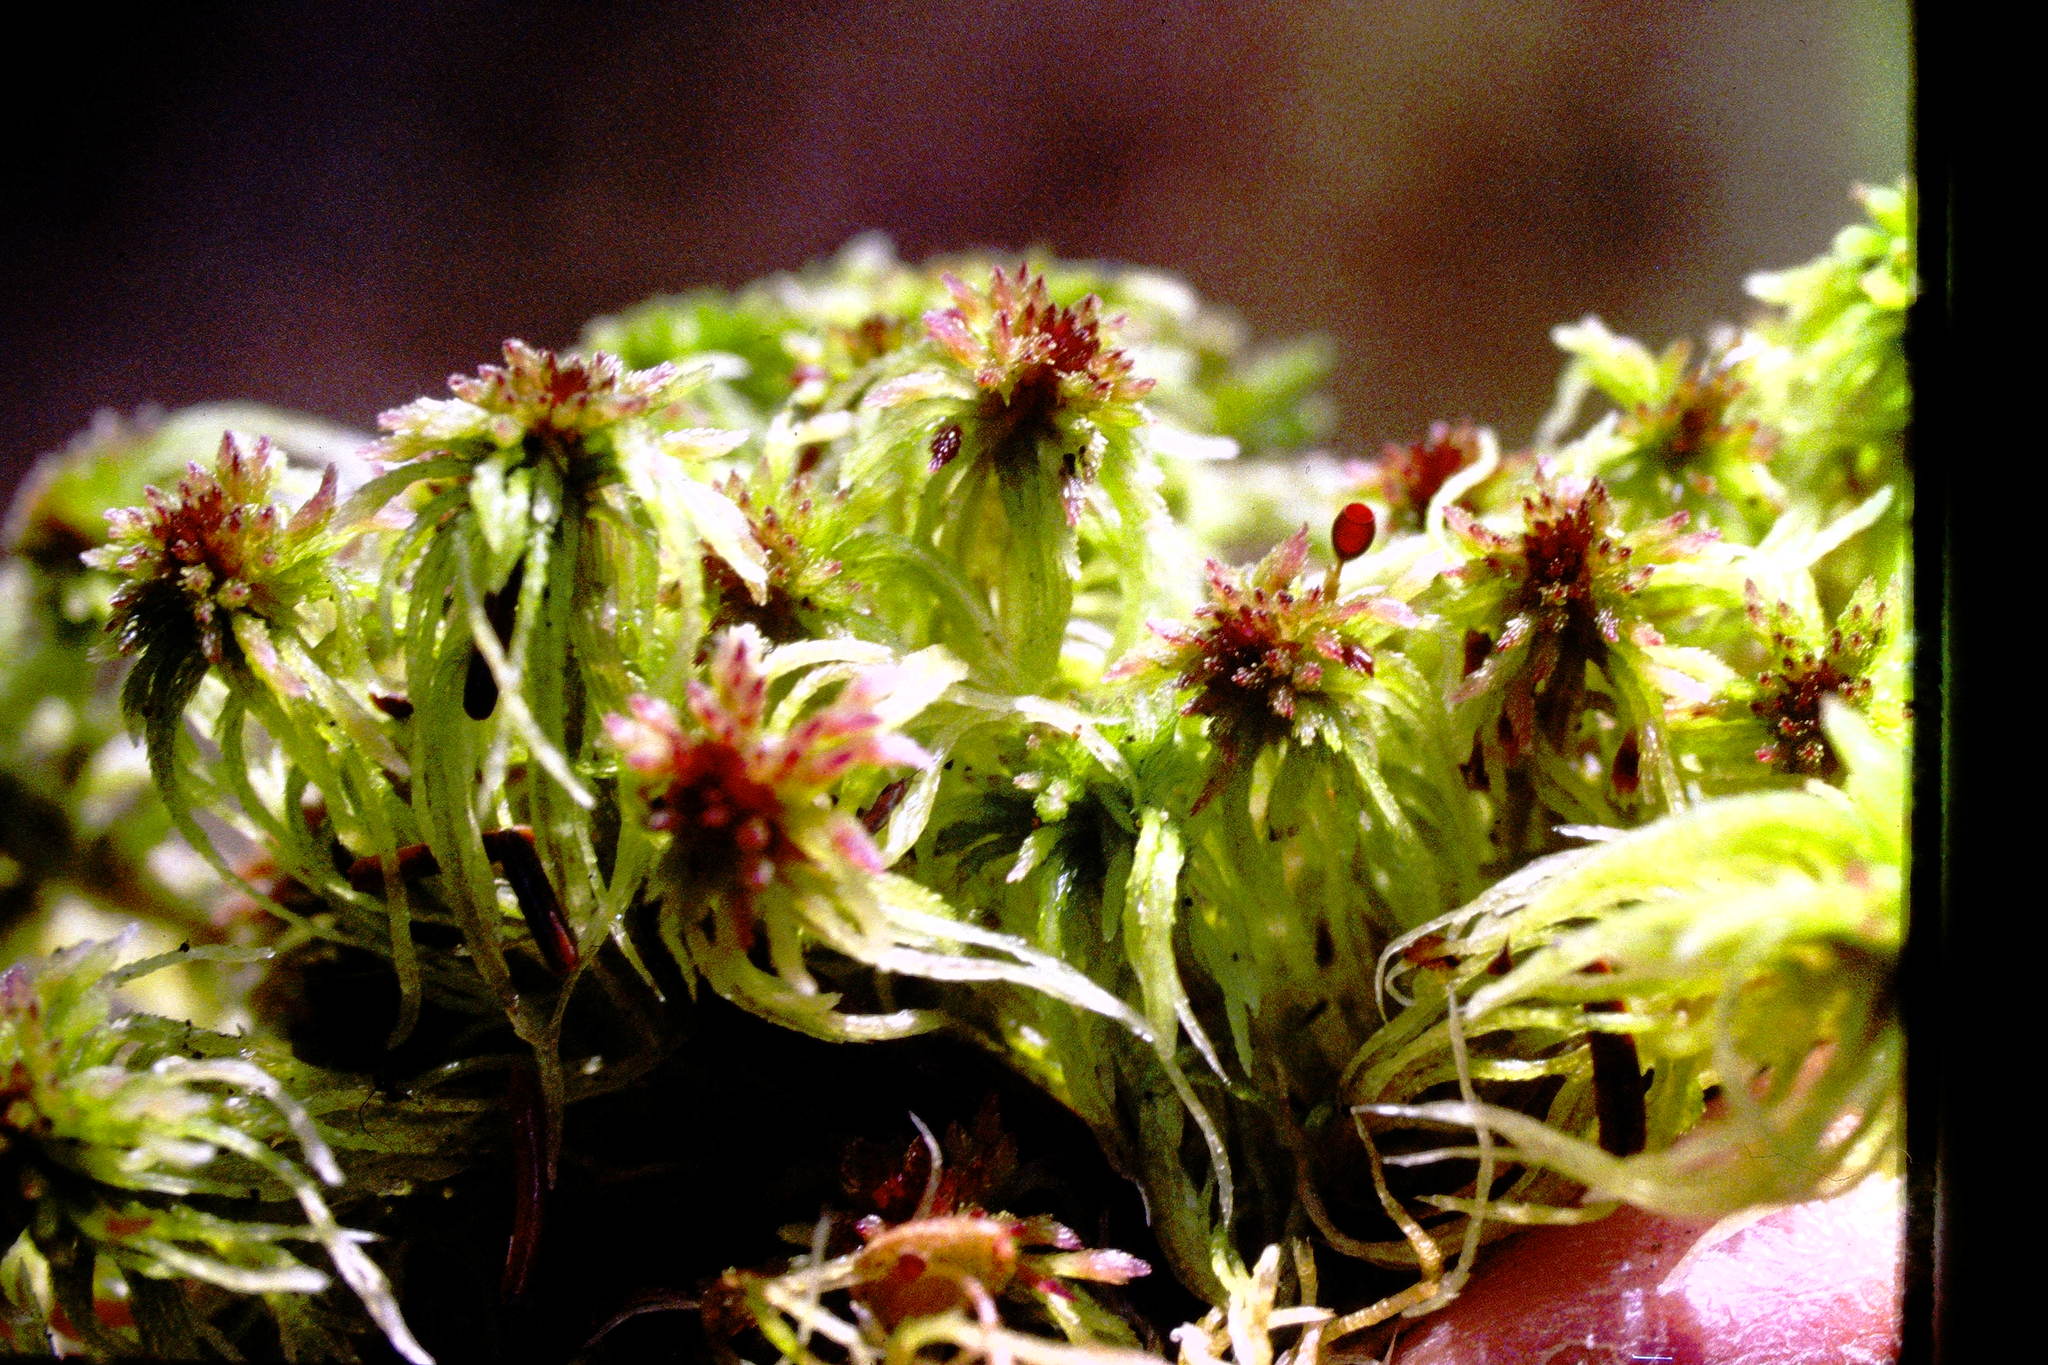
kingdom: Plantae
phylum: Bryophyta
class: Sphagnopsida
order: Sphagnales
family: Sphagnaceae
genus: Sphagnum
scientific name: Sphagnum russowii
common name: Russow's peat moss
